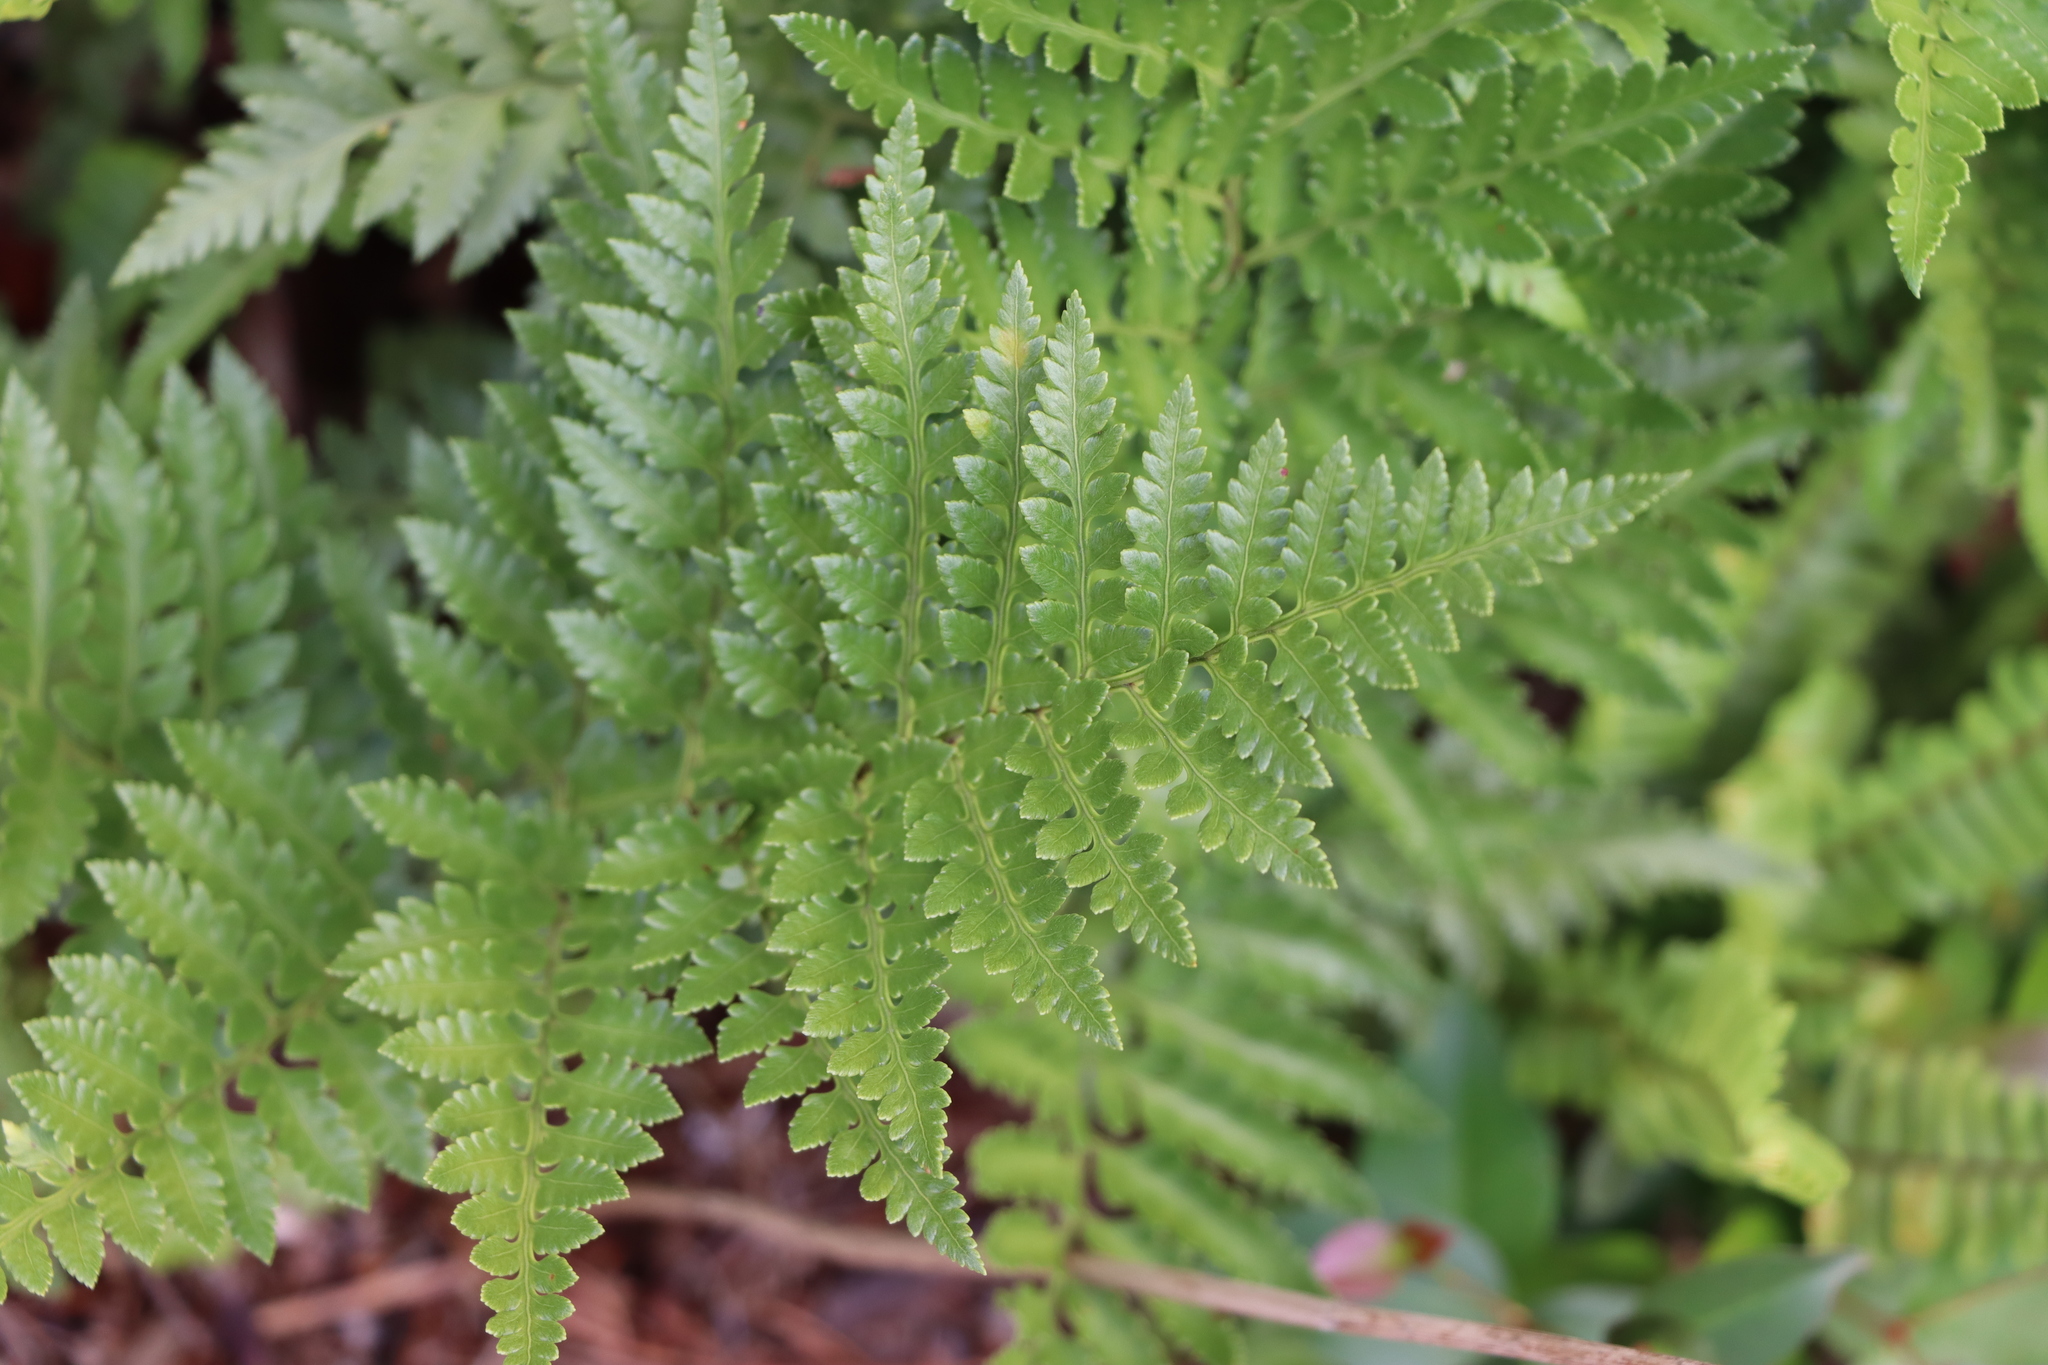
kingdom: Plantae
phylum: Tracheophyta
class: Polypodiopsida
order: Polypodiales
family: Dryopteridaceae
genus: Rumohra
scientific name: Rumohra adiantiformis
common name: Leather fern
